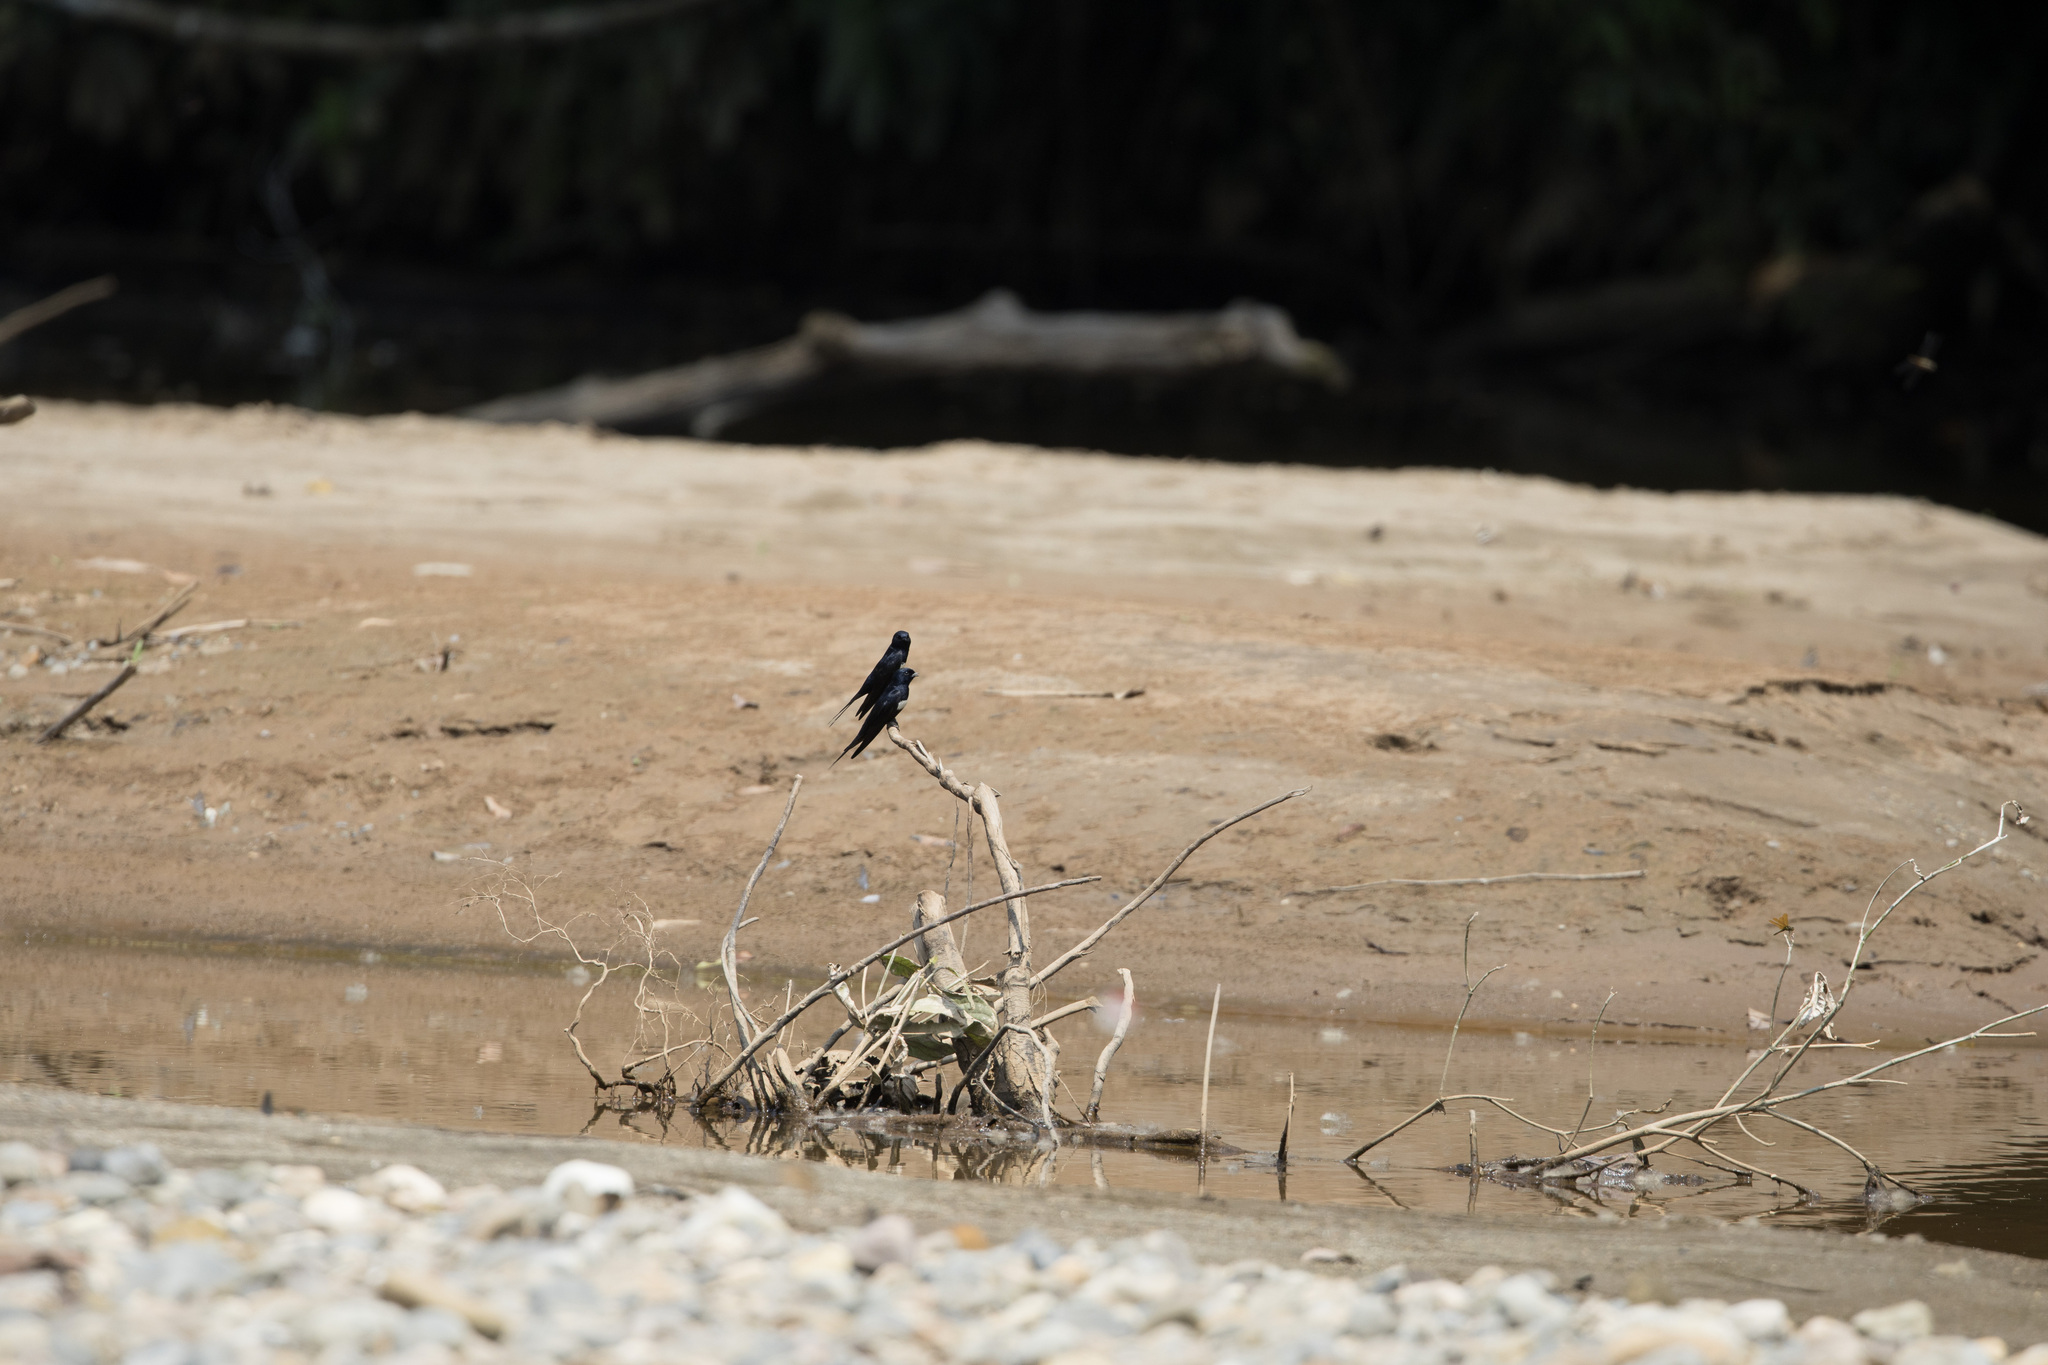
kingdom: Animalia
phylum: Chordata
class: Aves
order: Passeriformes
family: Hirundinidae
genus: Atticora
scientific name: Atticora fasciata
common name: White-banded swallow
